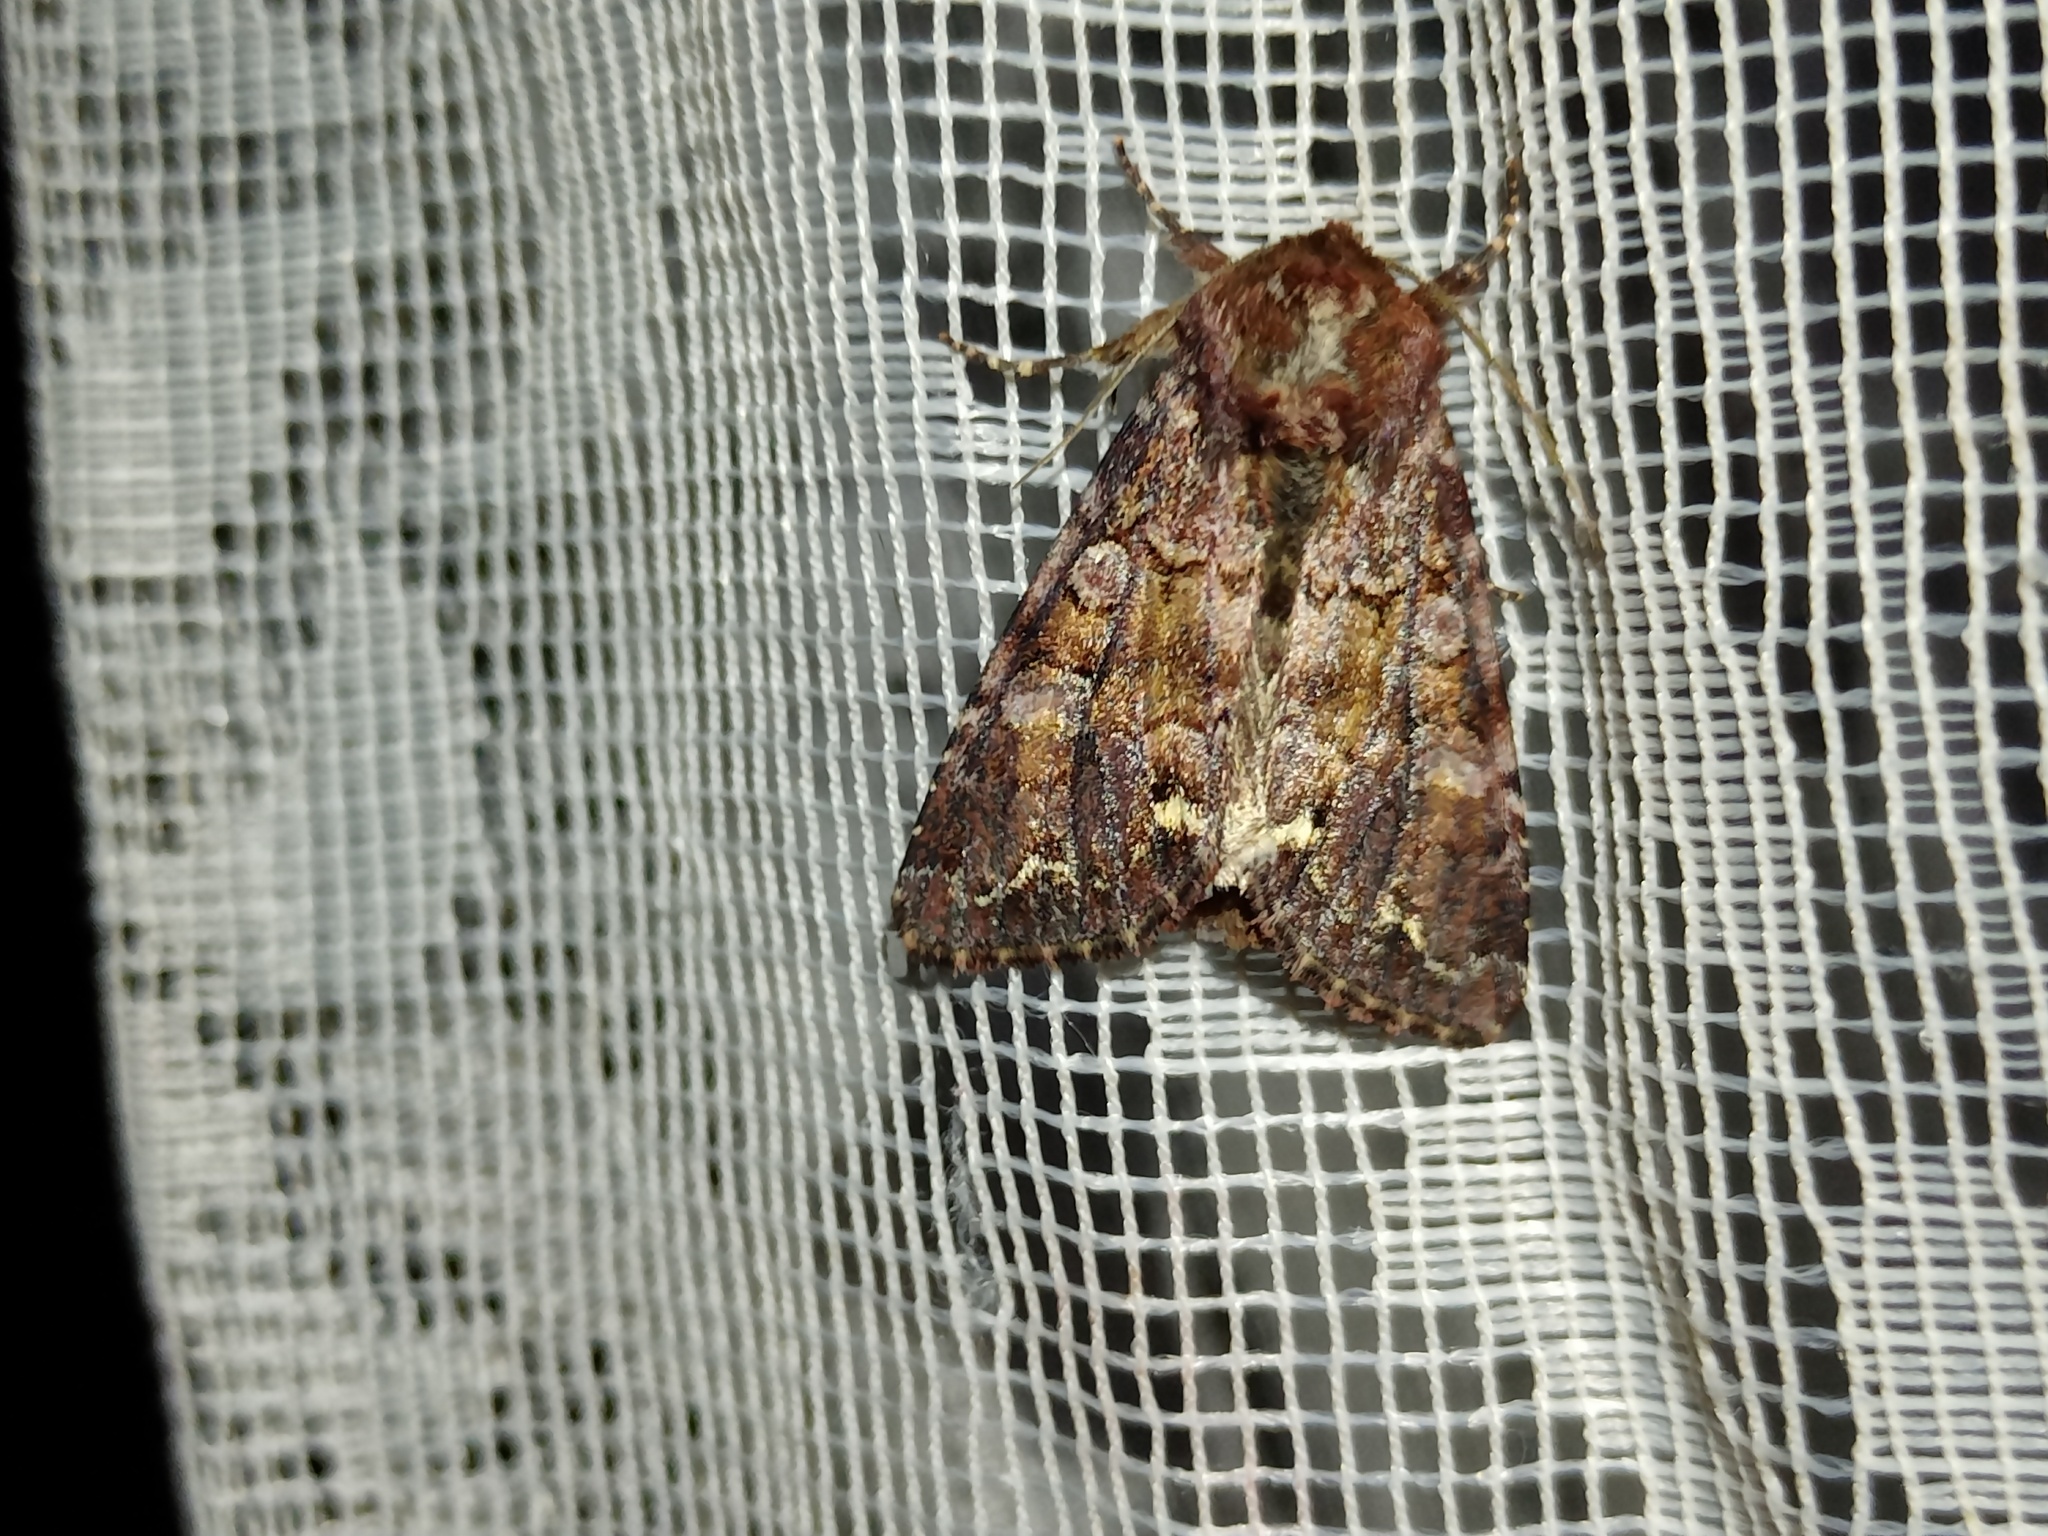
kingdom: Animalia
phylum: Arthropoda
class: Insecta
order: Lepidoptera
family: Noctuidae
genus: Ceramica
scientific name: Ceramica pisi
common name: Broom moth
